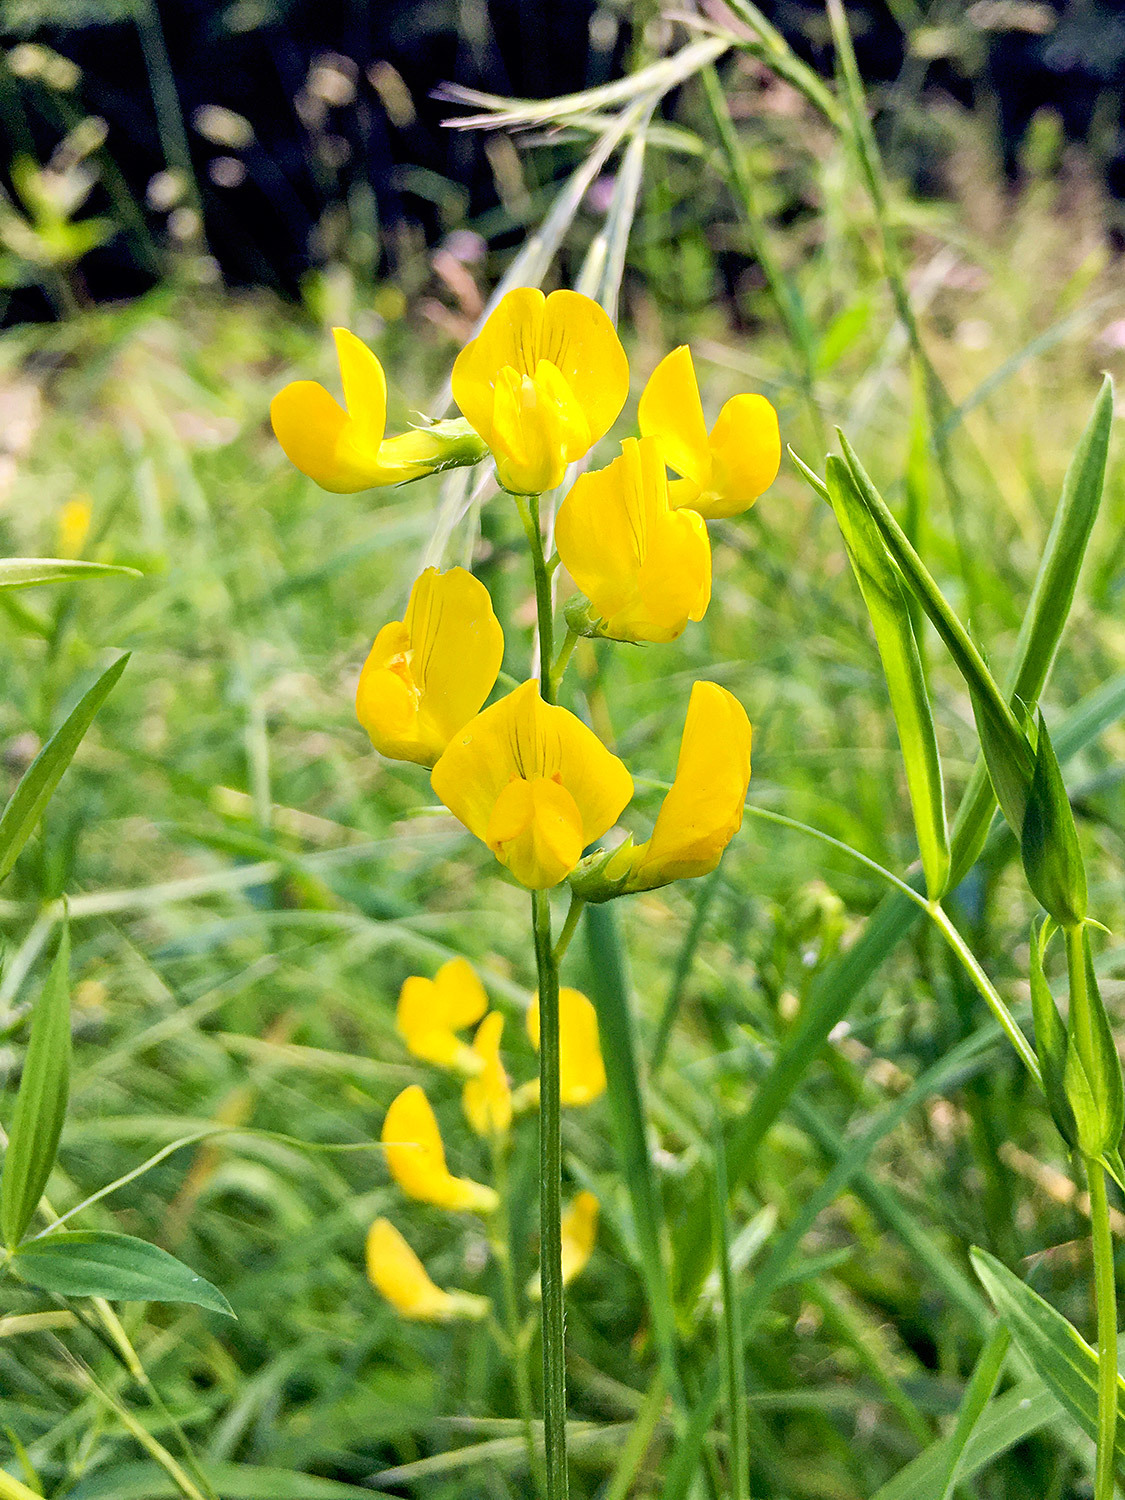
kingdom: Plantae
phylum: Tracheophyta
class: Magnoliopsida
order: Fabales
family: Fabaceae
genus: Lathyrus
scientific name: Lathyrus pratensis
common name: Meadow vetchling
